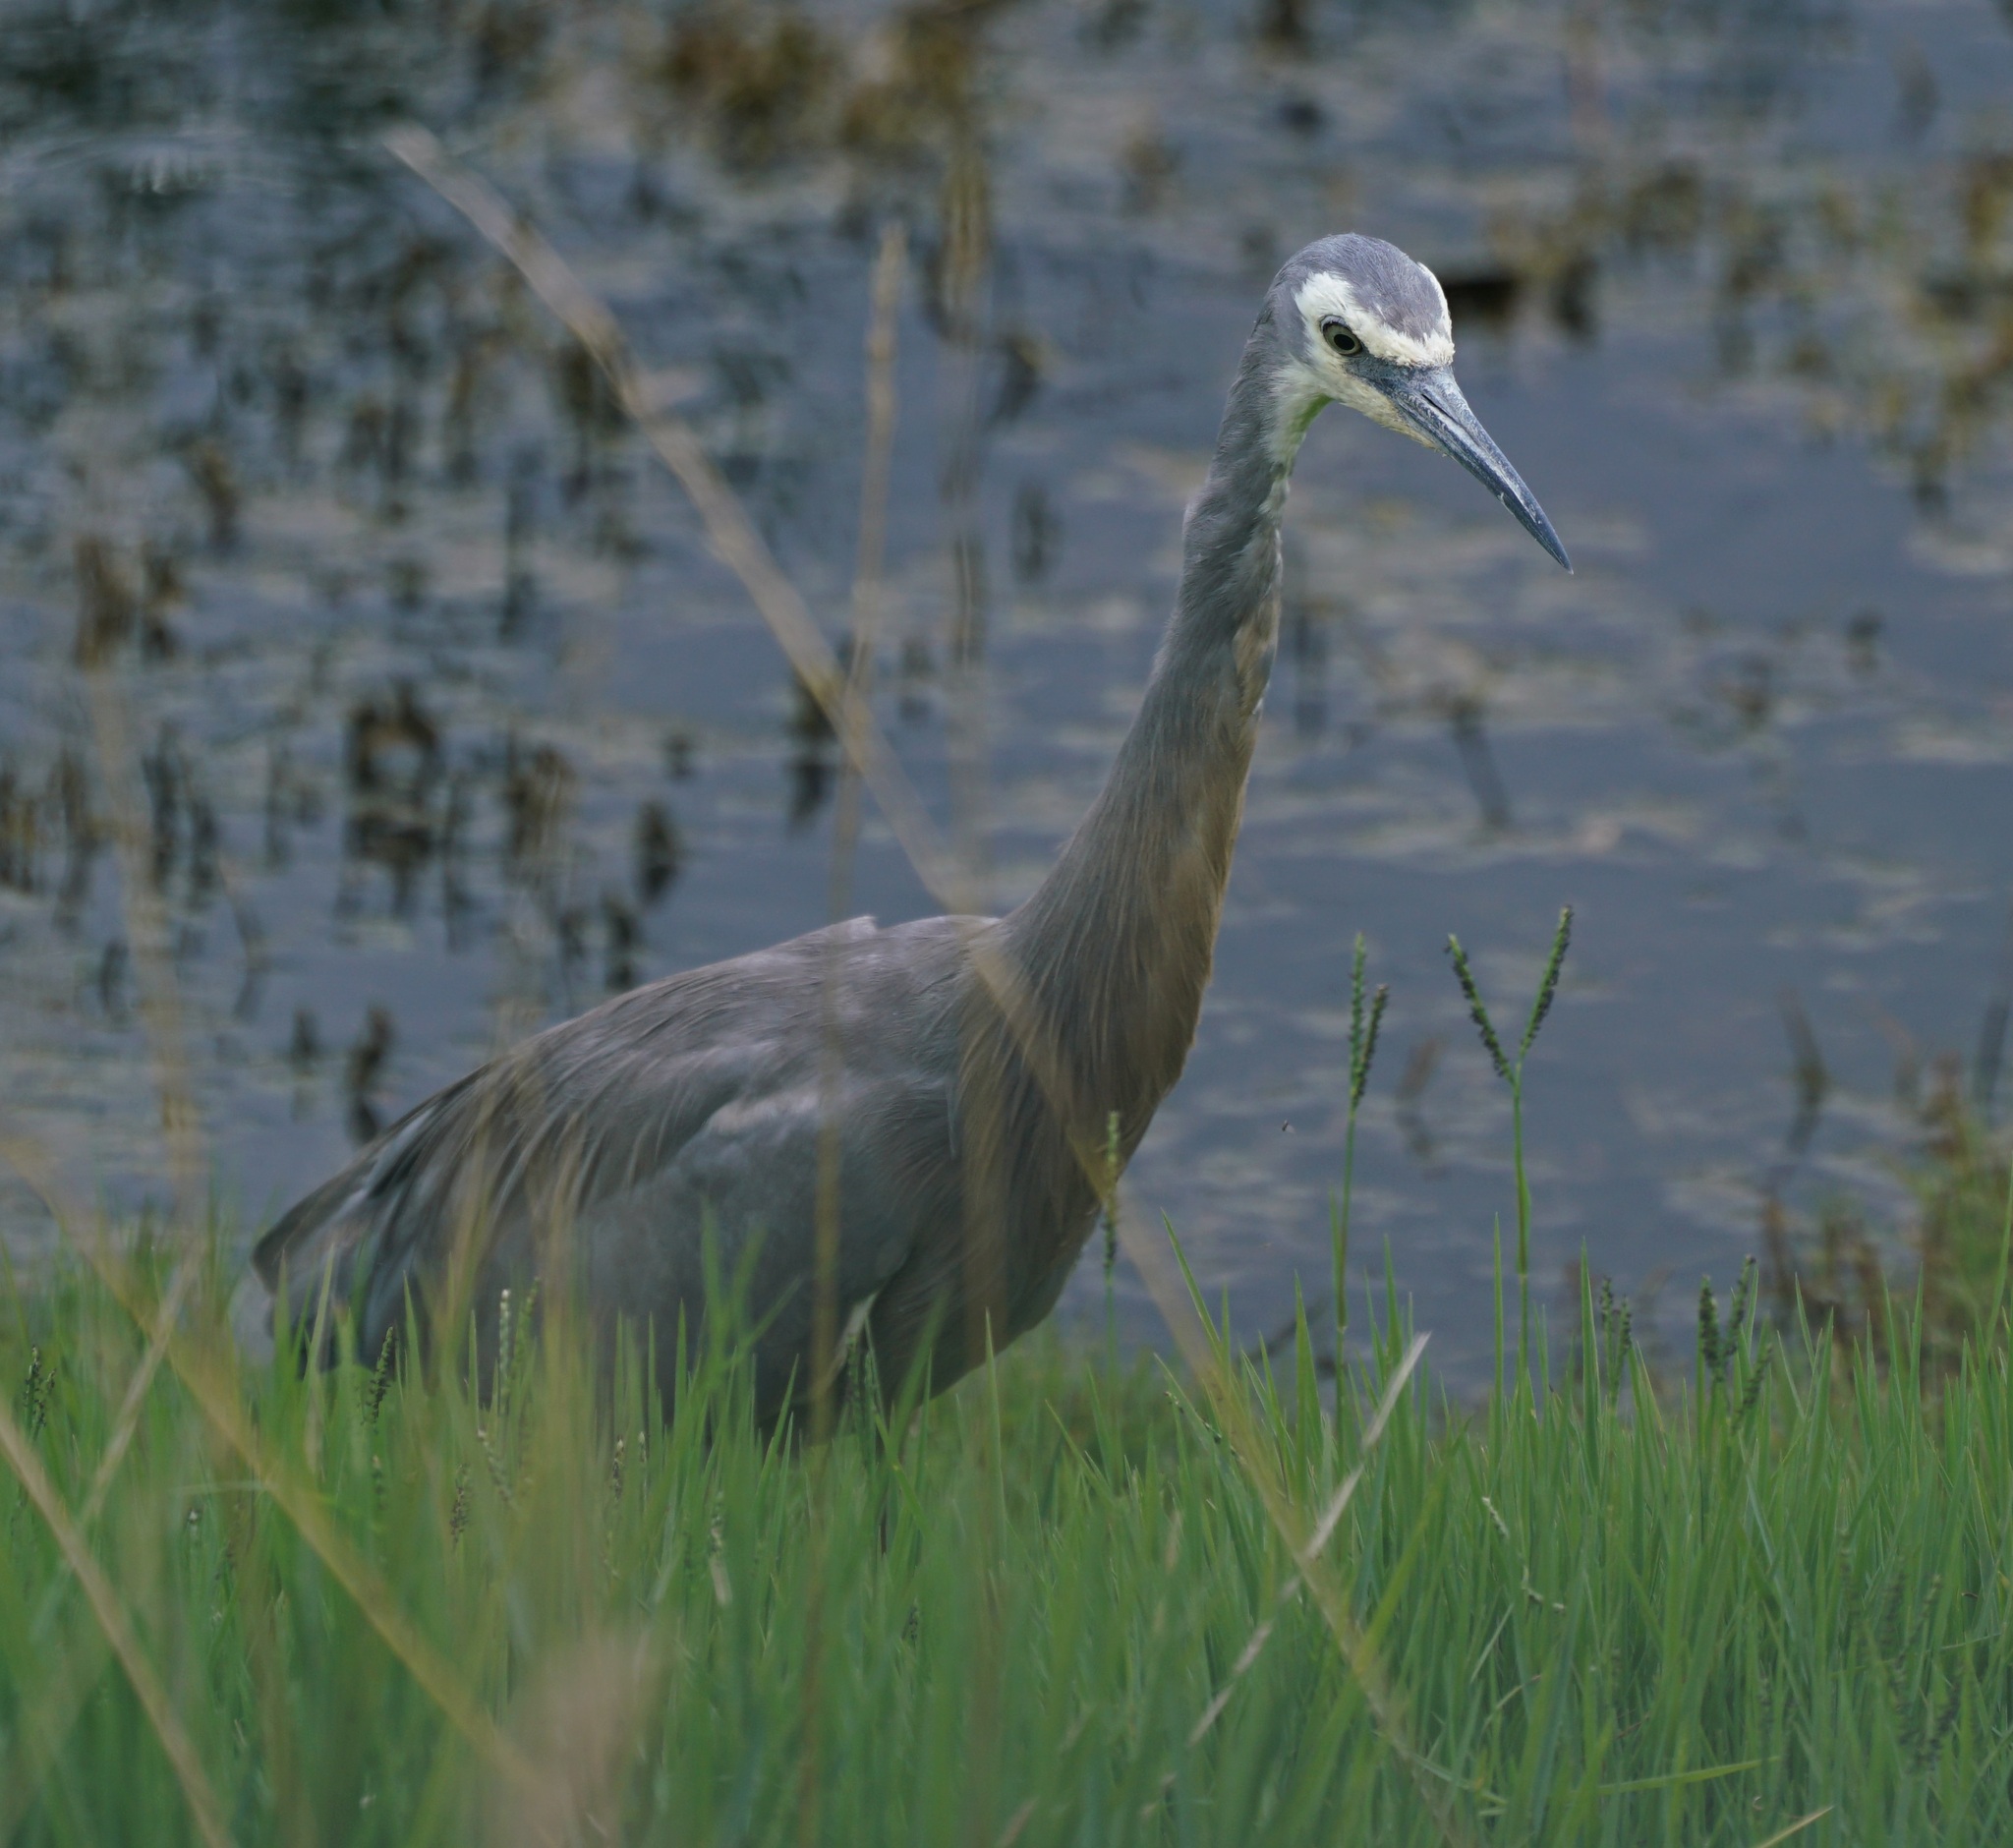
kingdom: Animalia
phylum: Chordata
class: Aves
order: Pelecaniformes
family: Ardeidae
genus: Egretta
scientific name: Egretta novaehollandiae
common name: White-faced heron
